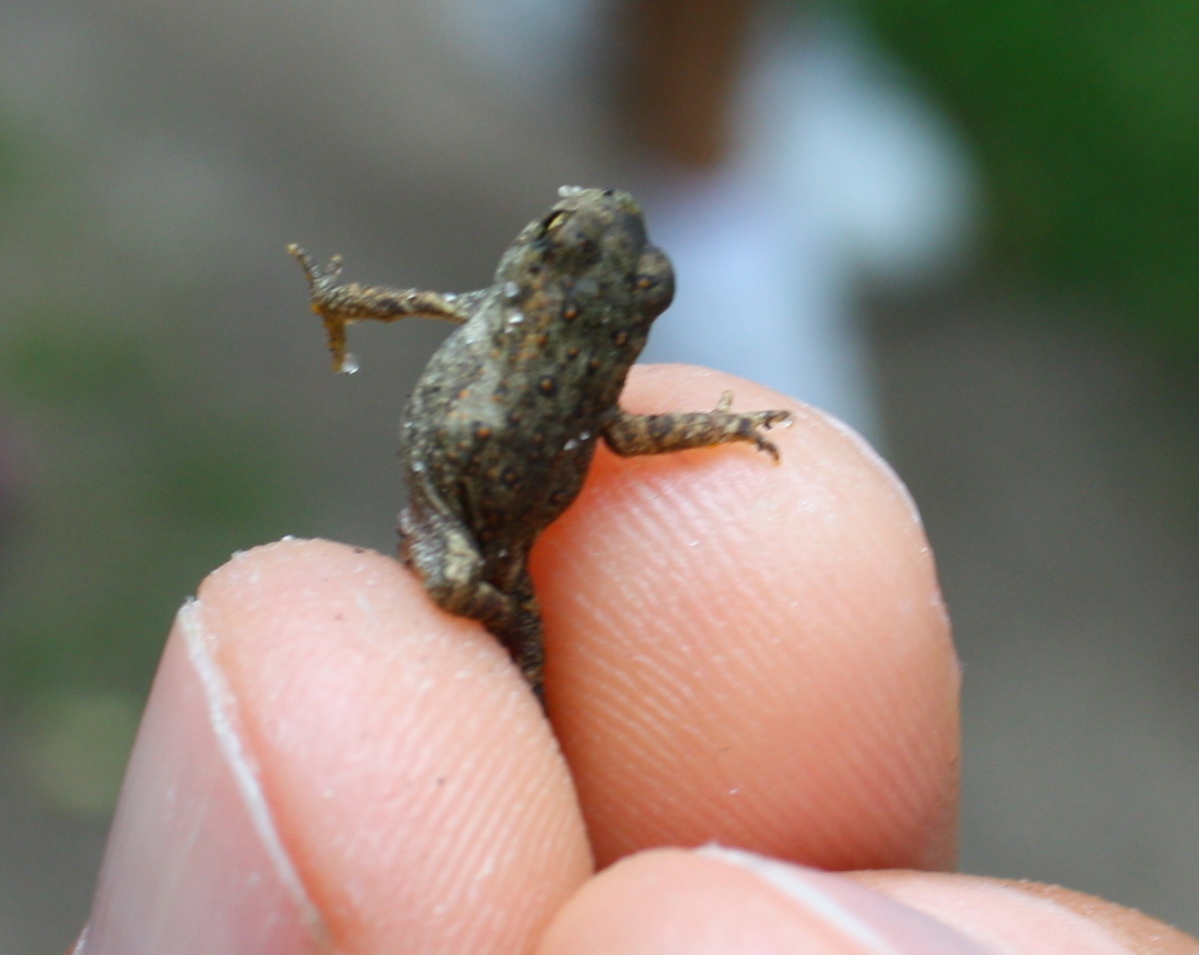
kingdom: Animalia
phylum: Chordata
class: Amphibia
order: Anura
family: Bufonidae
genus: Anaxyrus
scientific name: Anaxyrus americanus
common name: American toad
